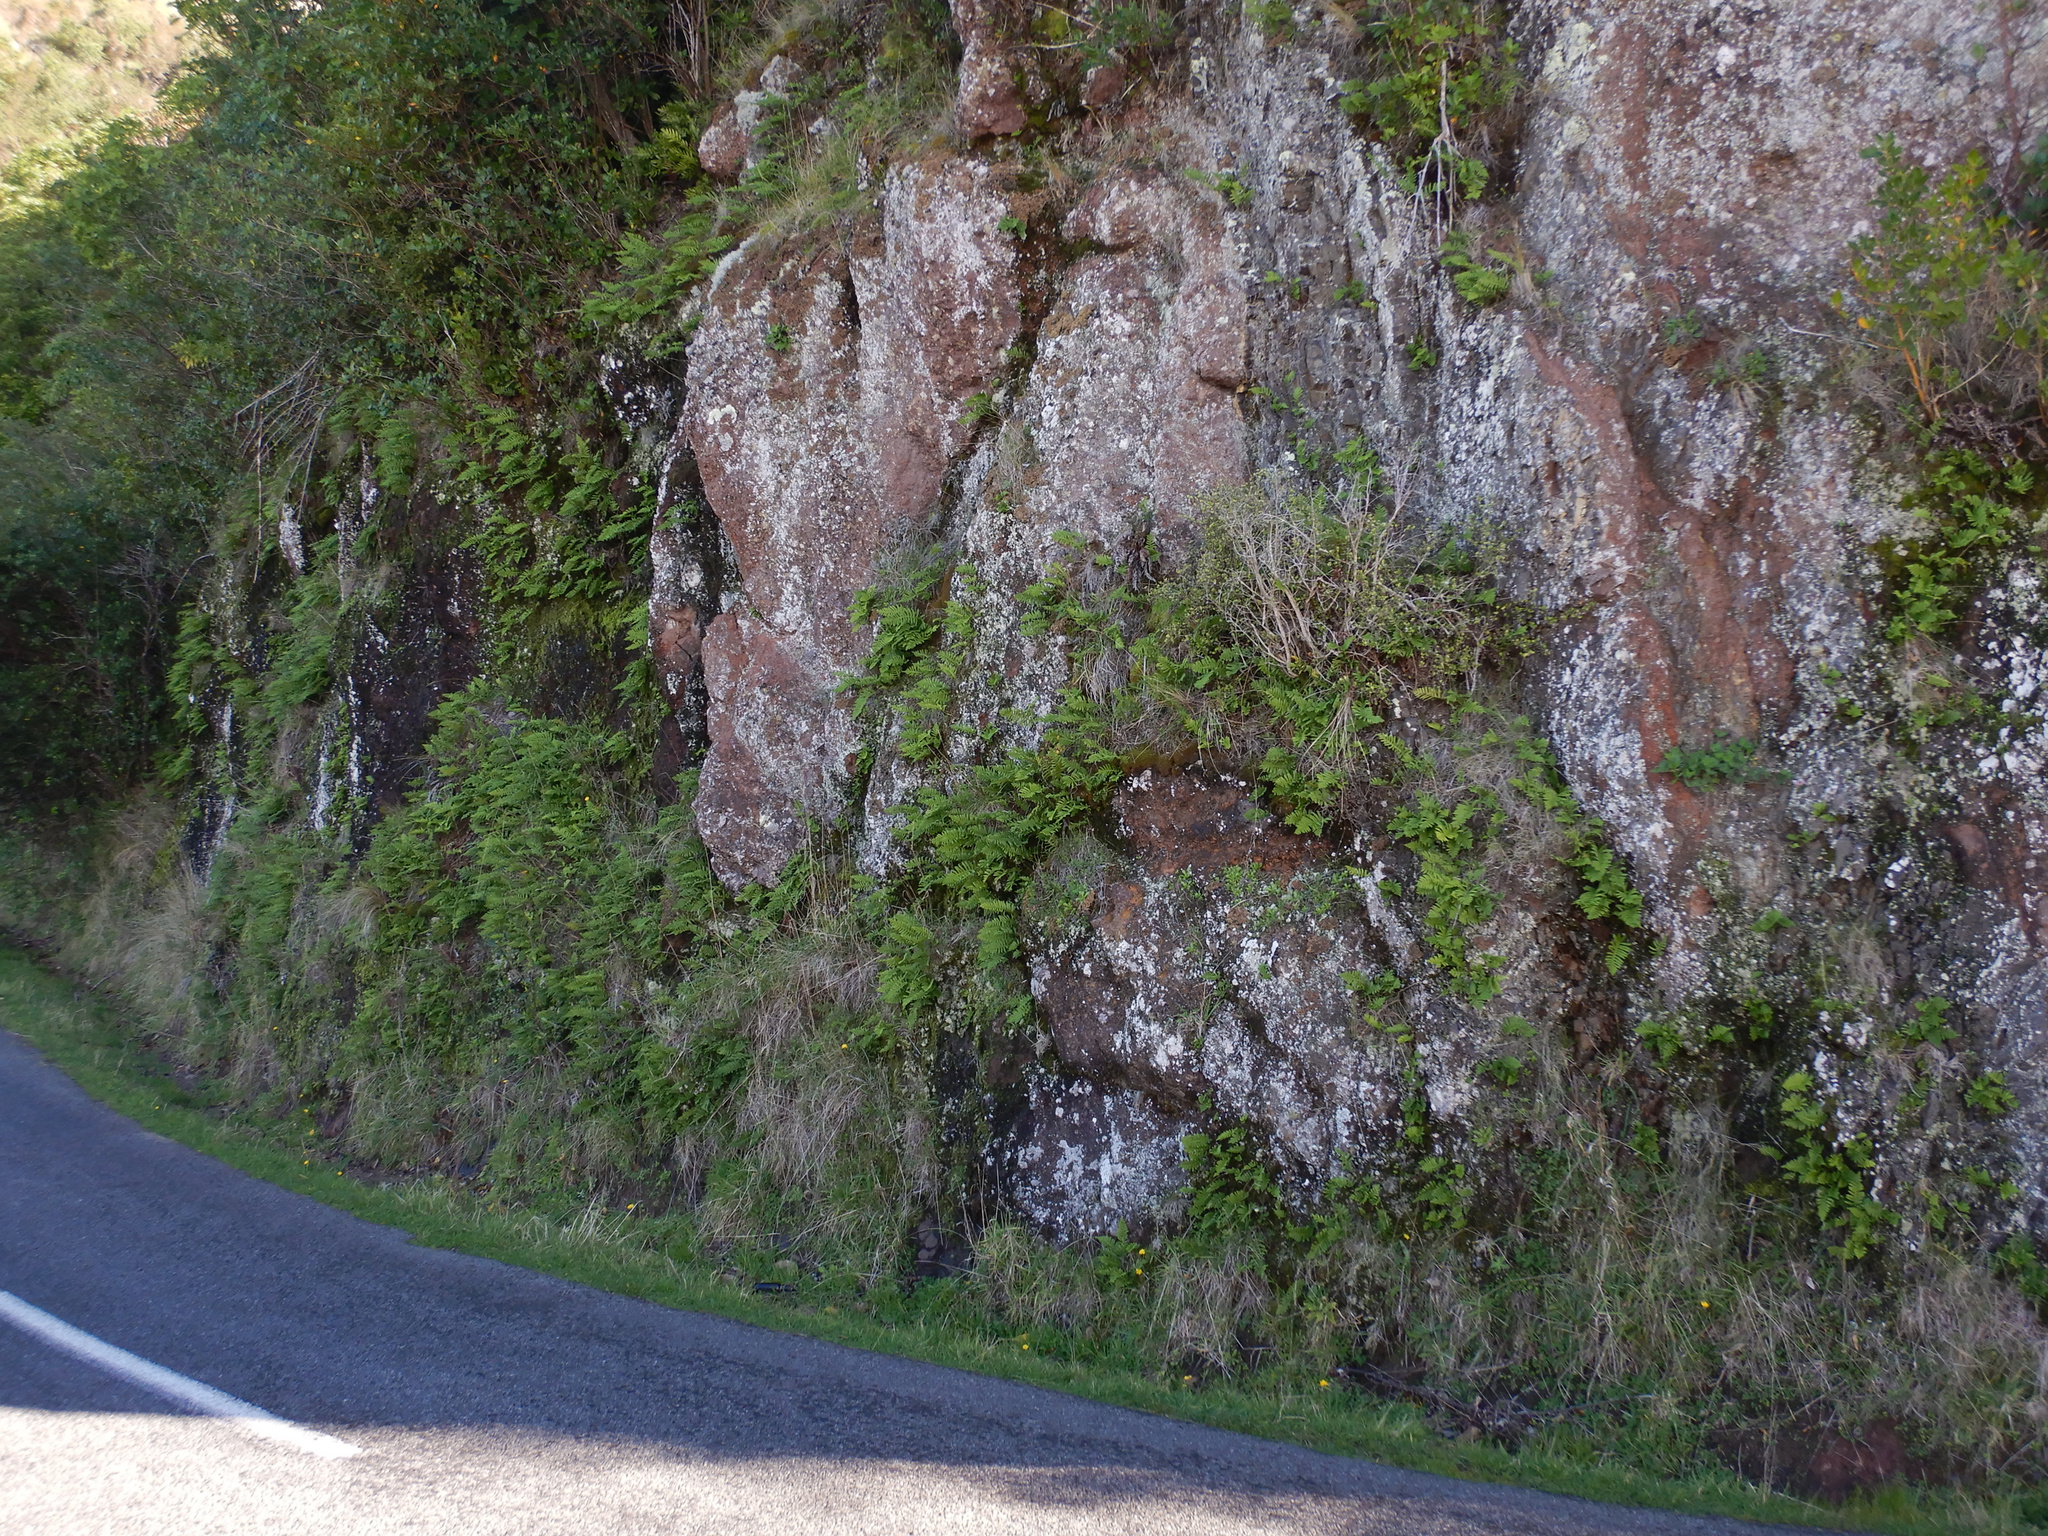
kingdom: Plantae
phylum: Tracheophyta
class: Polypodiopsida
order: Polypodiales
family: Polypodiaceae
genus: Polypodium
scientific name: Polypodium vulgare
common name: Common polypody
